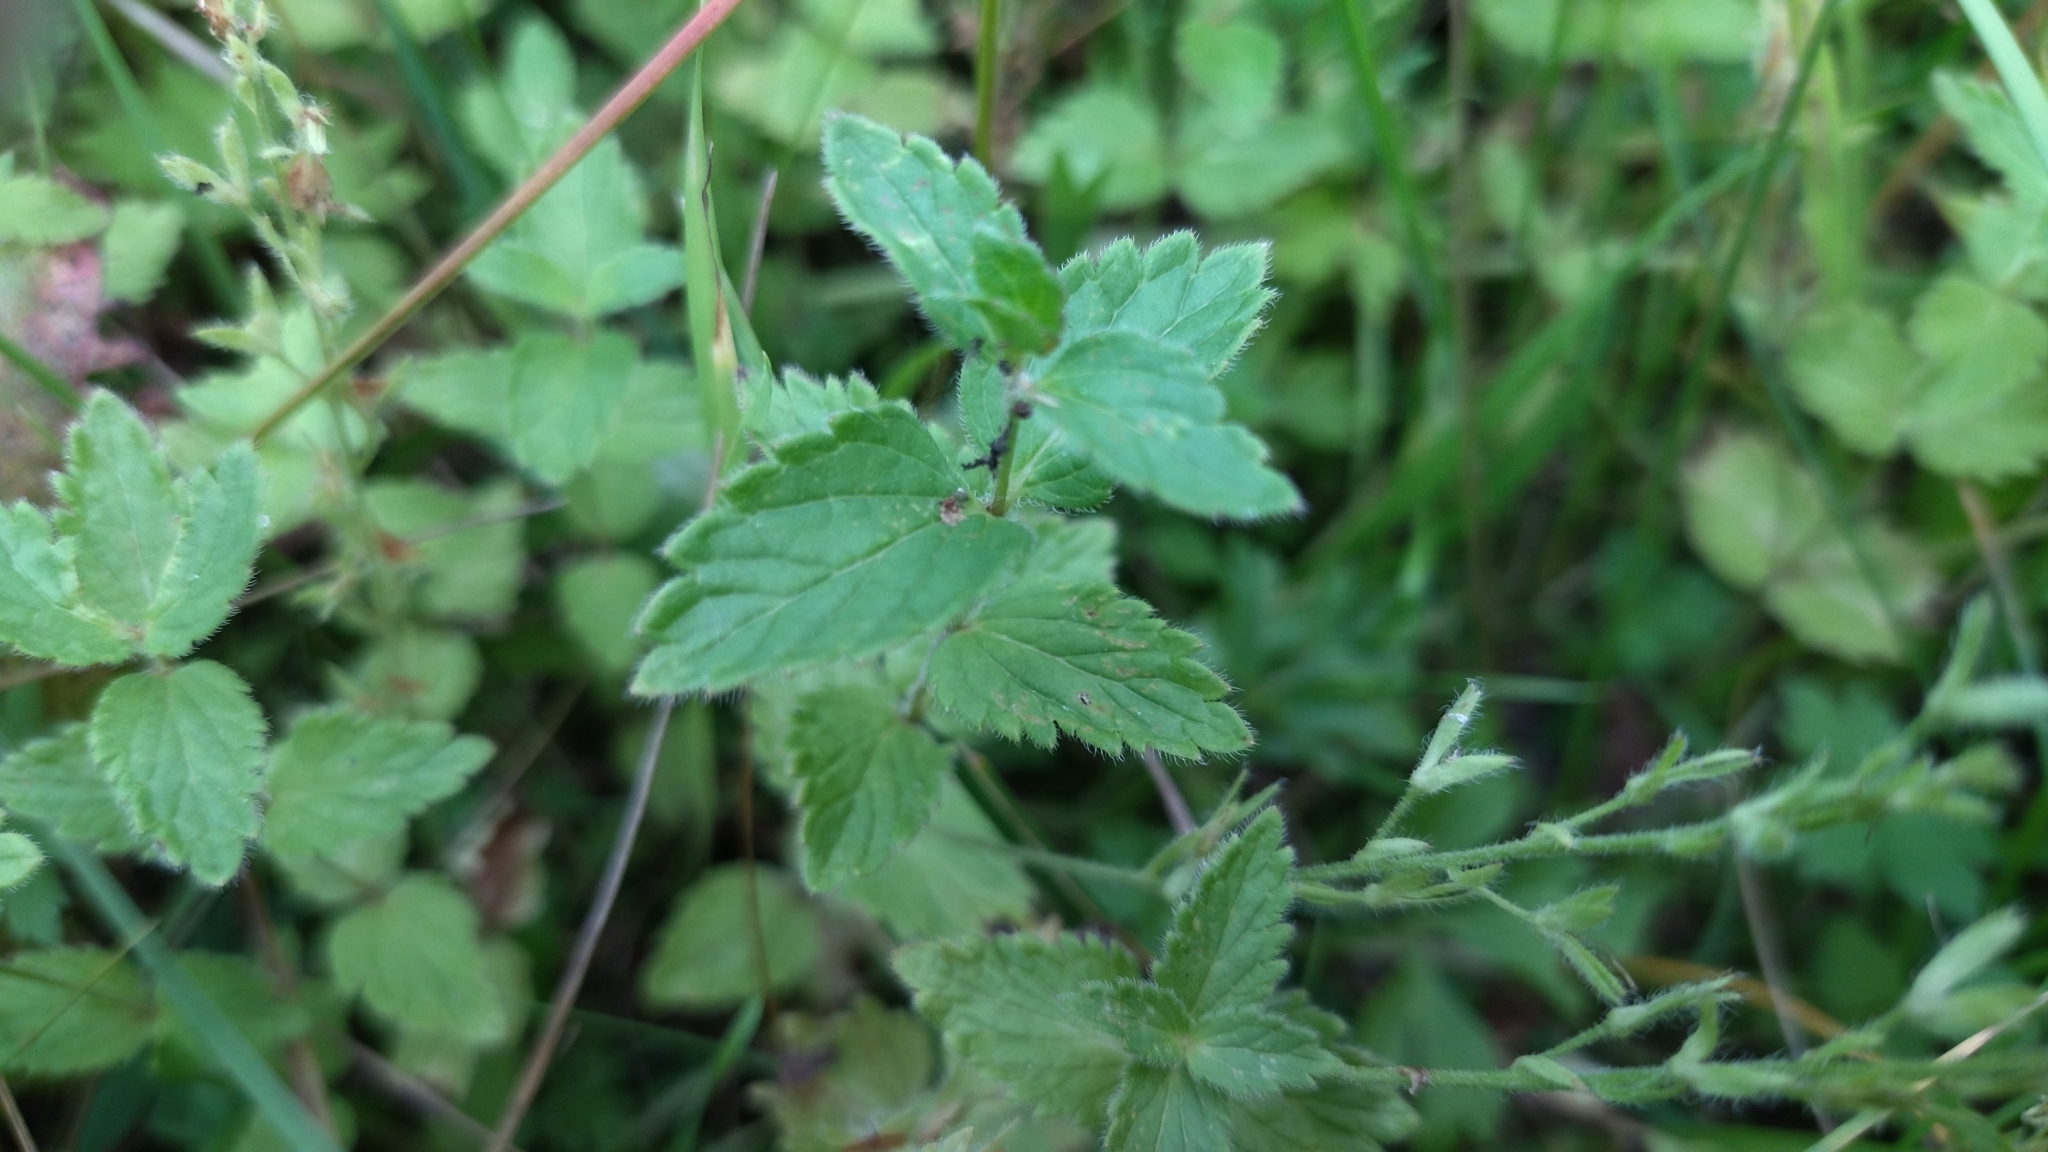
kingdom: Plantae
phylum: Tracheophyta
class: Magnoliopsida
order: Lamiales
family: Plantaginaceae
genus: Veronica
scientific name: Veronica chamaedrys
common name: Germander speedwell
